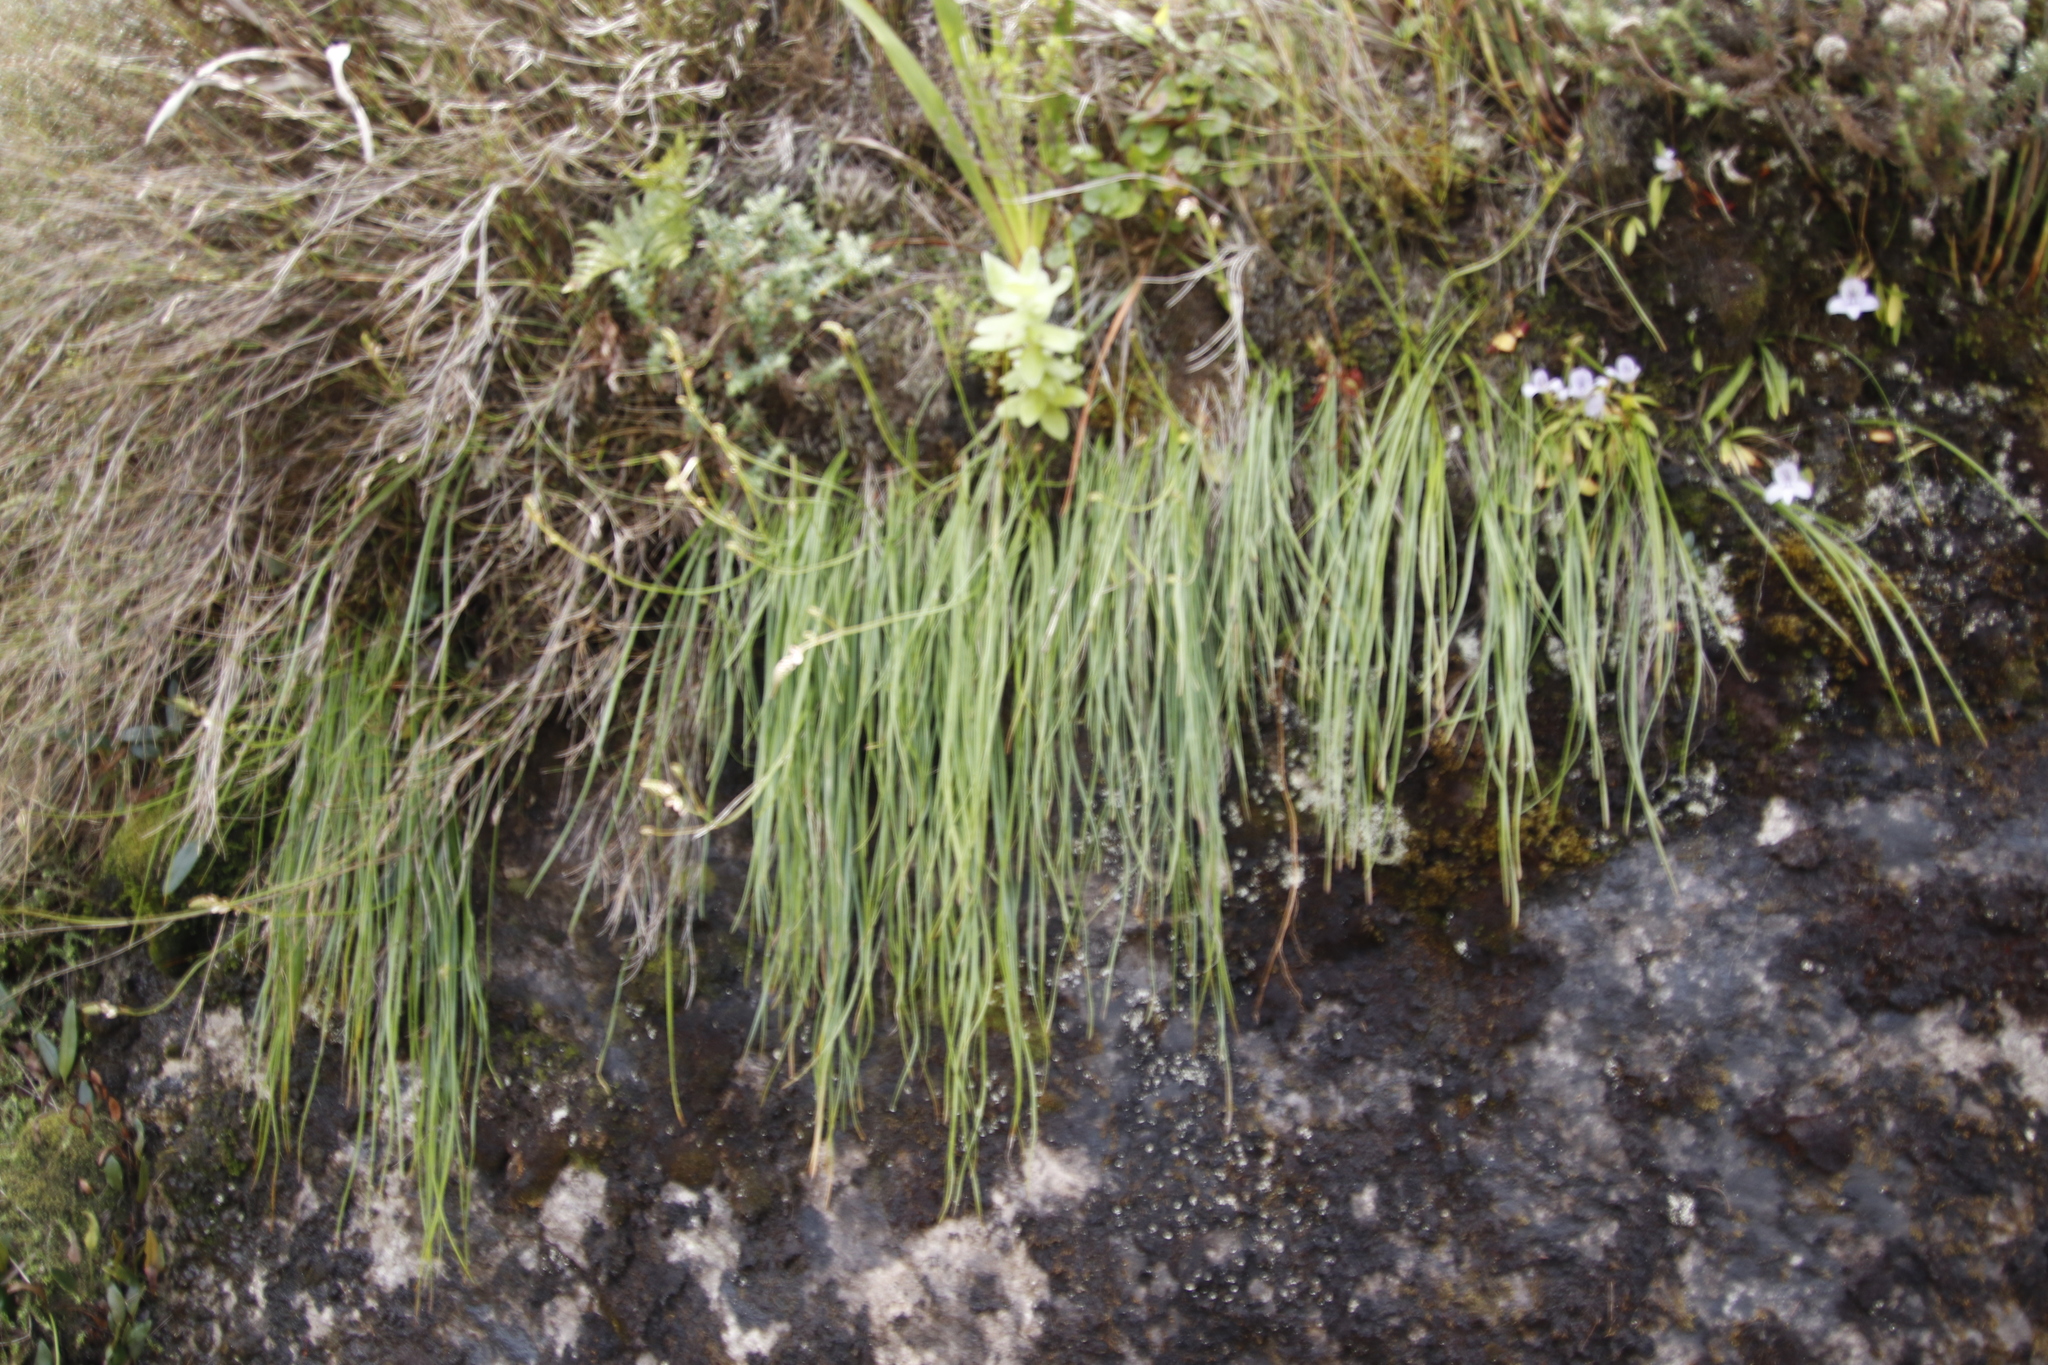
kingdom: Plantae
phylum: Tracheophyta
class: Liliopsida
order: Asparagales
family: Asphodelaceae
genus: Trachyandra
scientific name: Trachyandra tabularis
